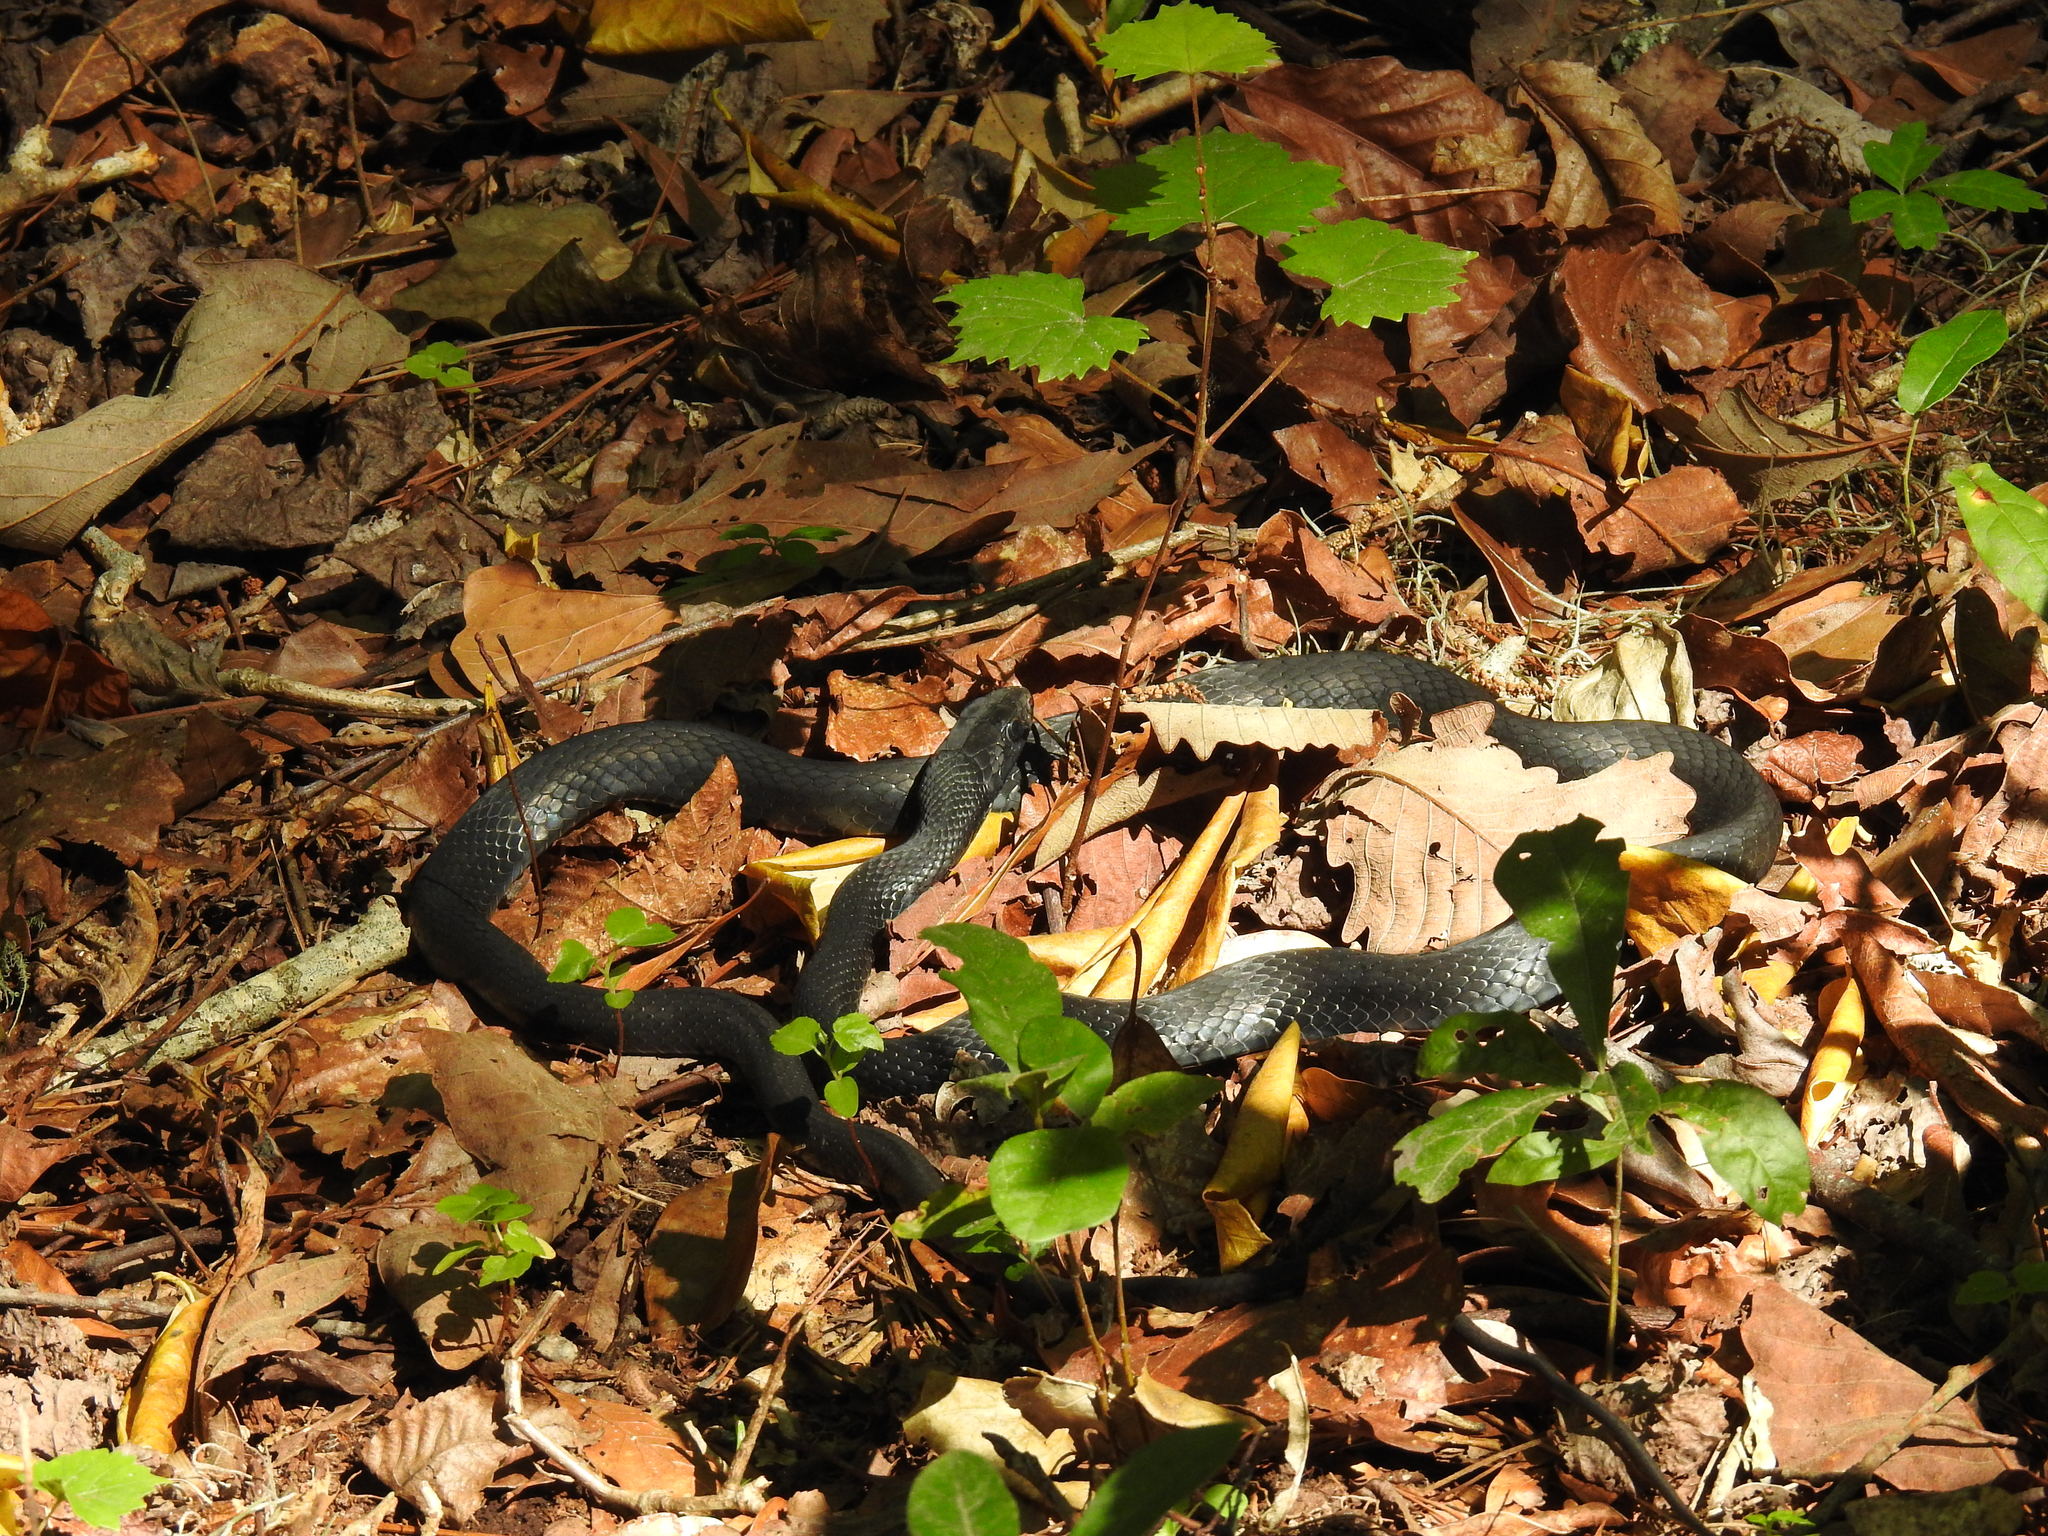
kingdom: Animalia
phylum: Chordata
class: Squamata
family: Colubridae
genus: Coluber
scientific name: Coluber constrictor
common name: Eastern racer
